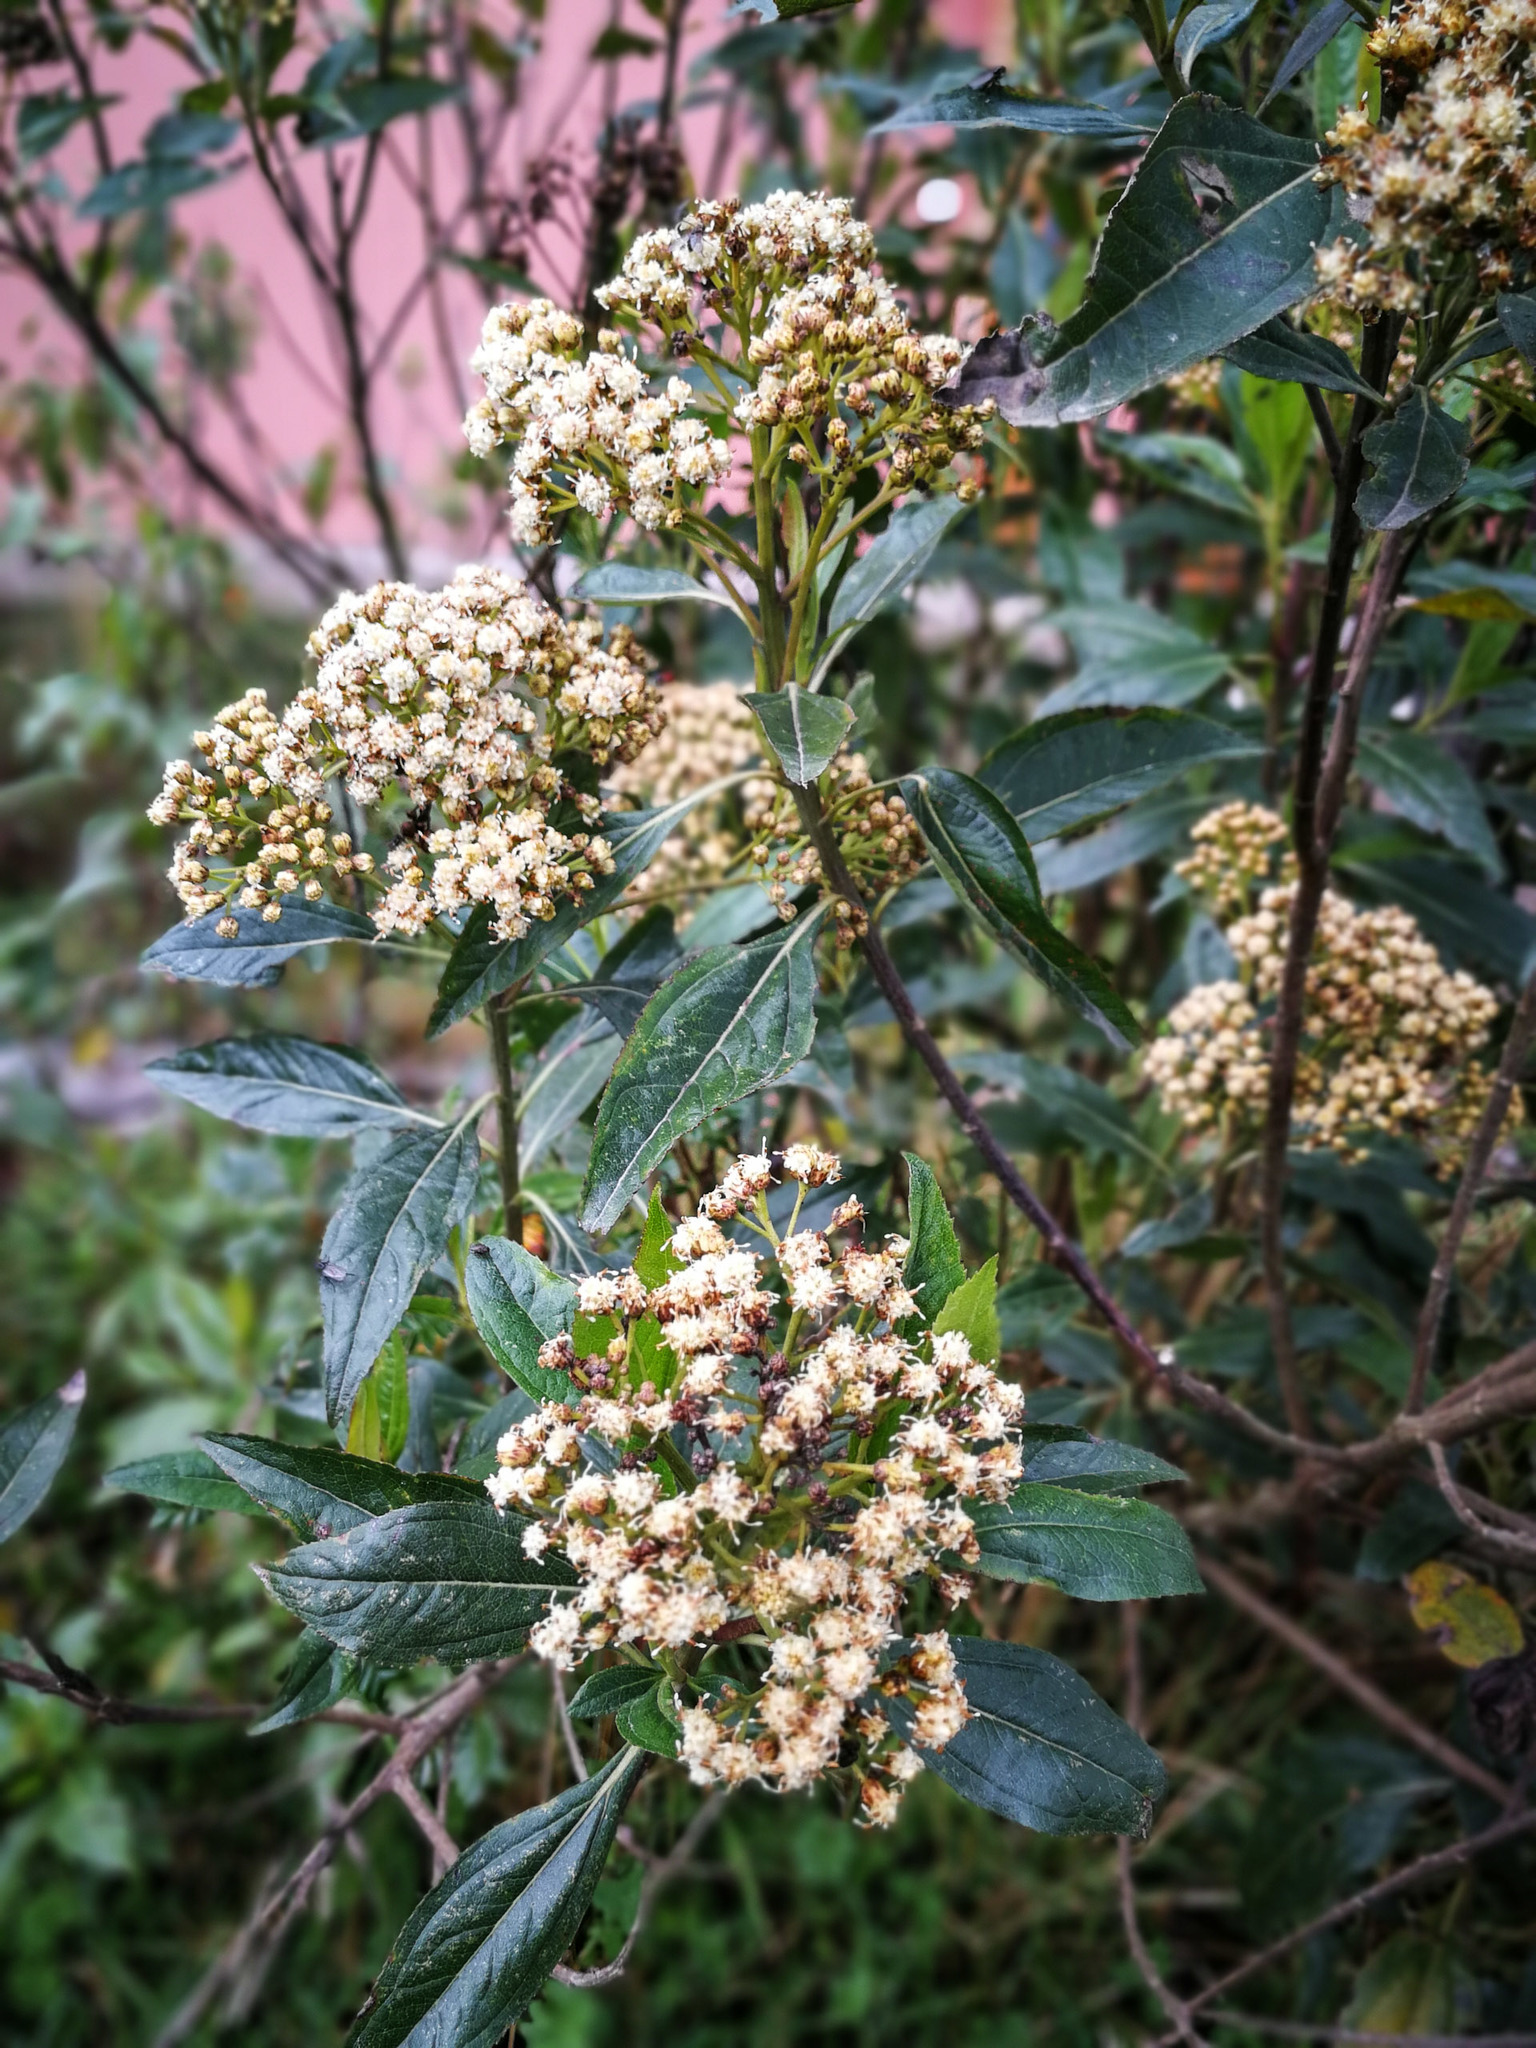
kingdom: Plantae
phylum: Tracheophyta
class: Magnoliopsida
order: Asterales
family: Asteraceae
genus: Baccharis
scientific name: Baccharis latifolia
